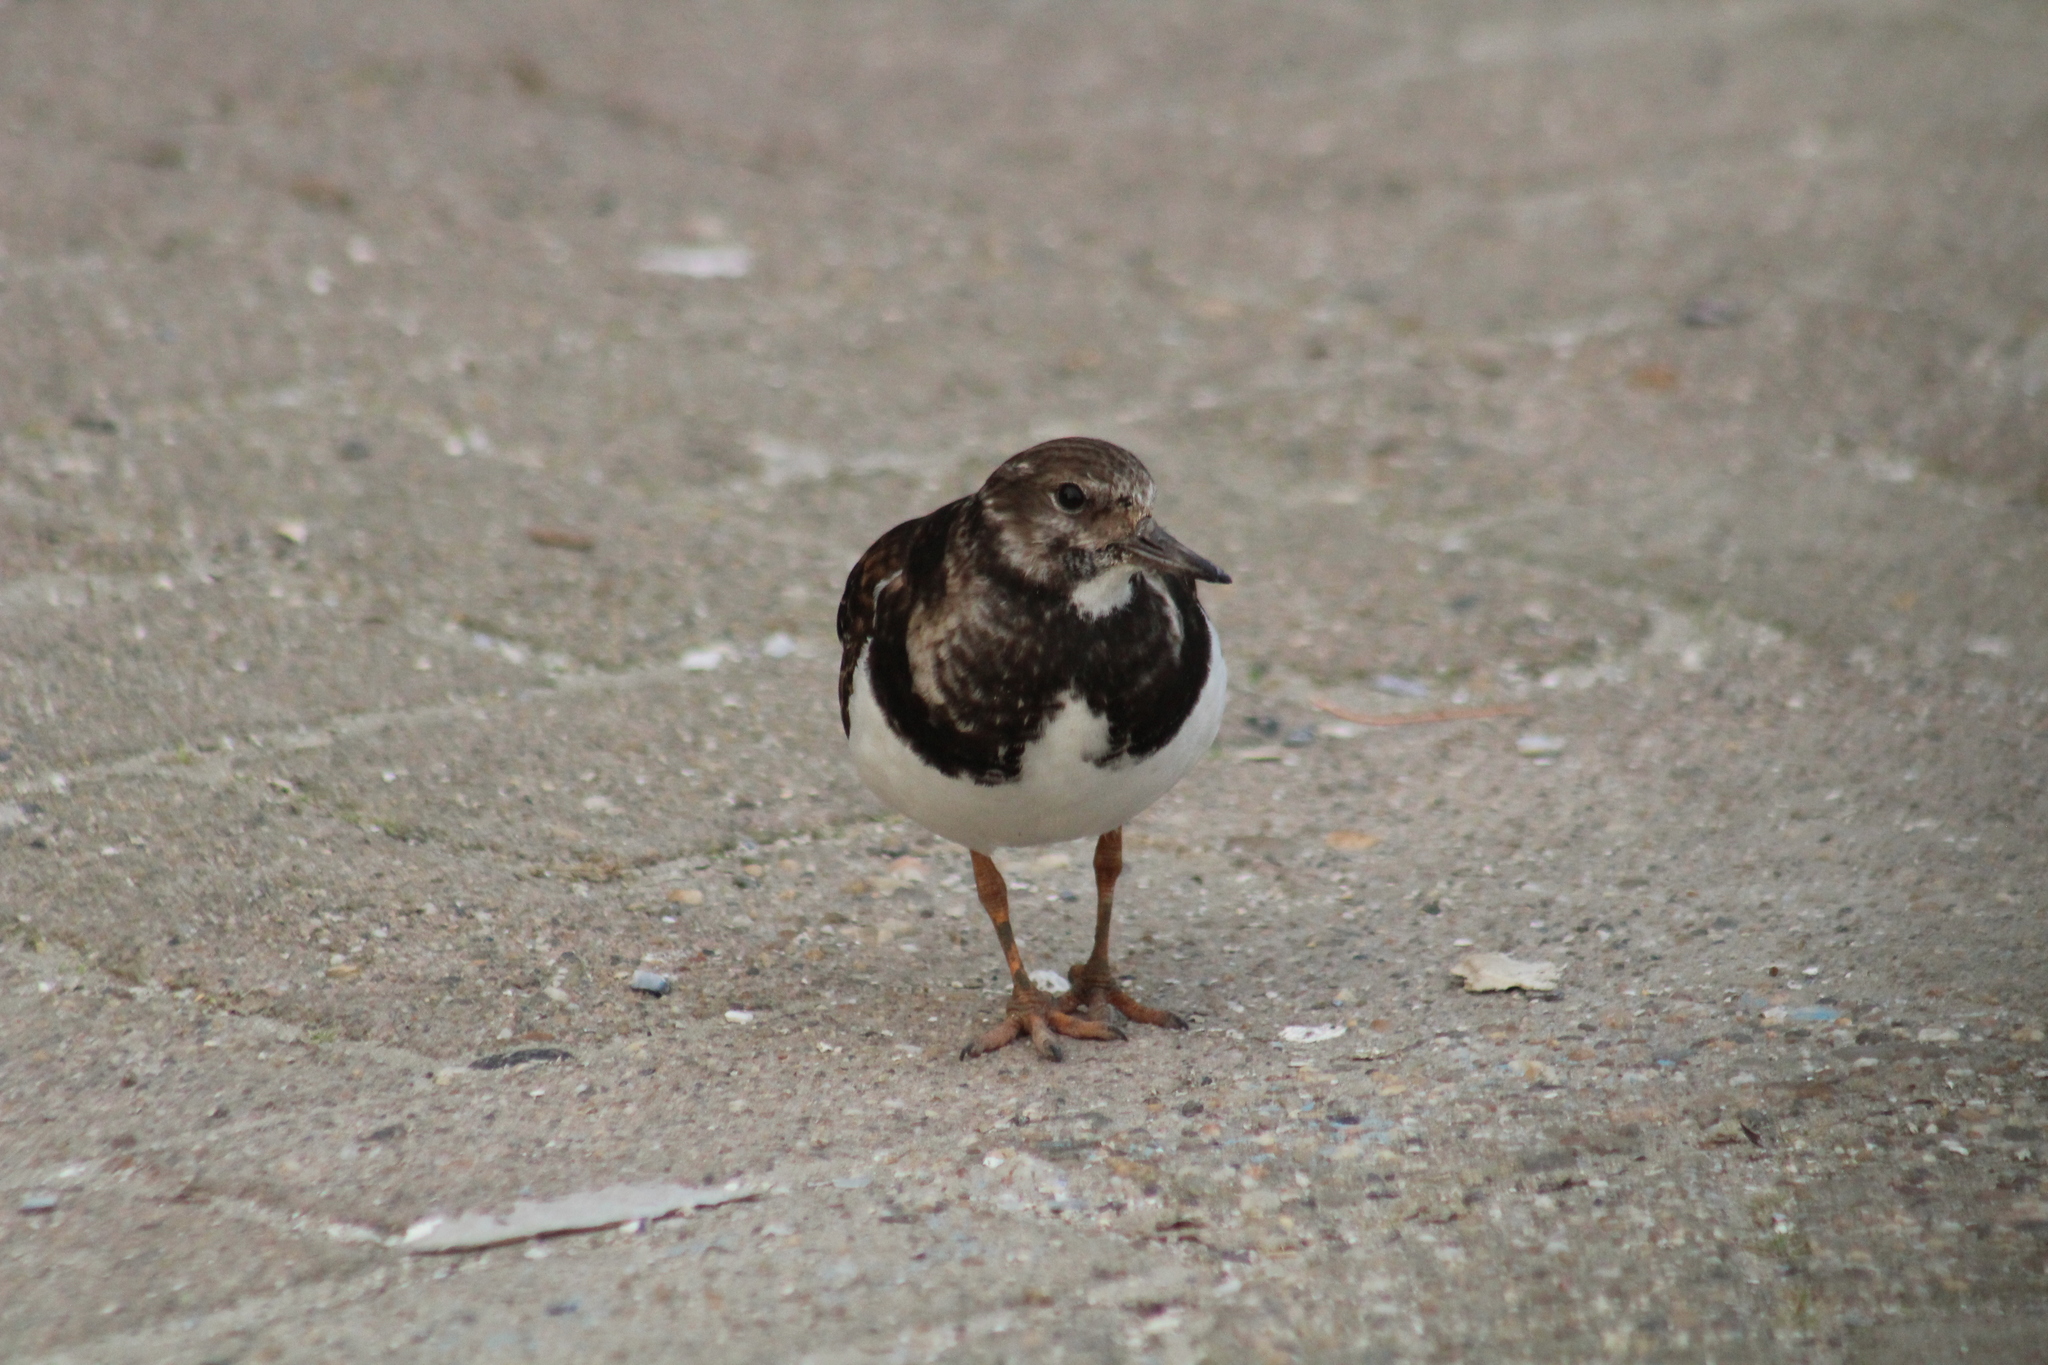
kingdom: Animalia
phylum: Chordata
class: Aves
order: Charadriiformes
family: Scolopacidae
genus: Arenaria
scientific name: Arenaria interpres
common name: Ruddy turnstone
